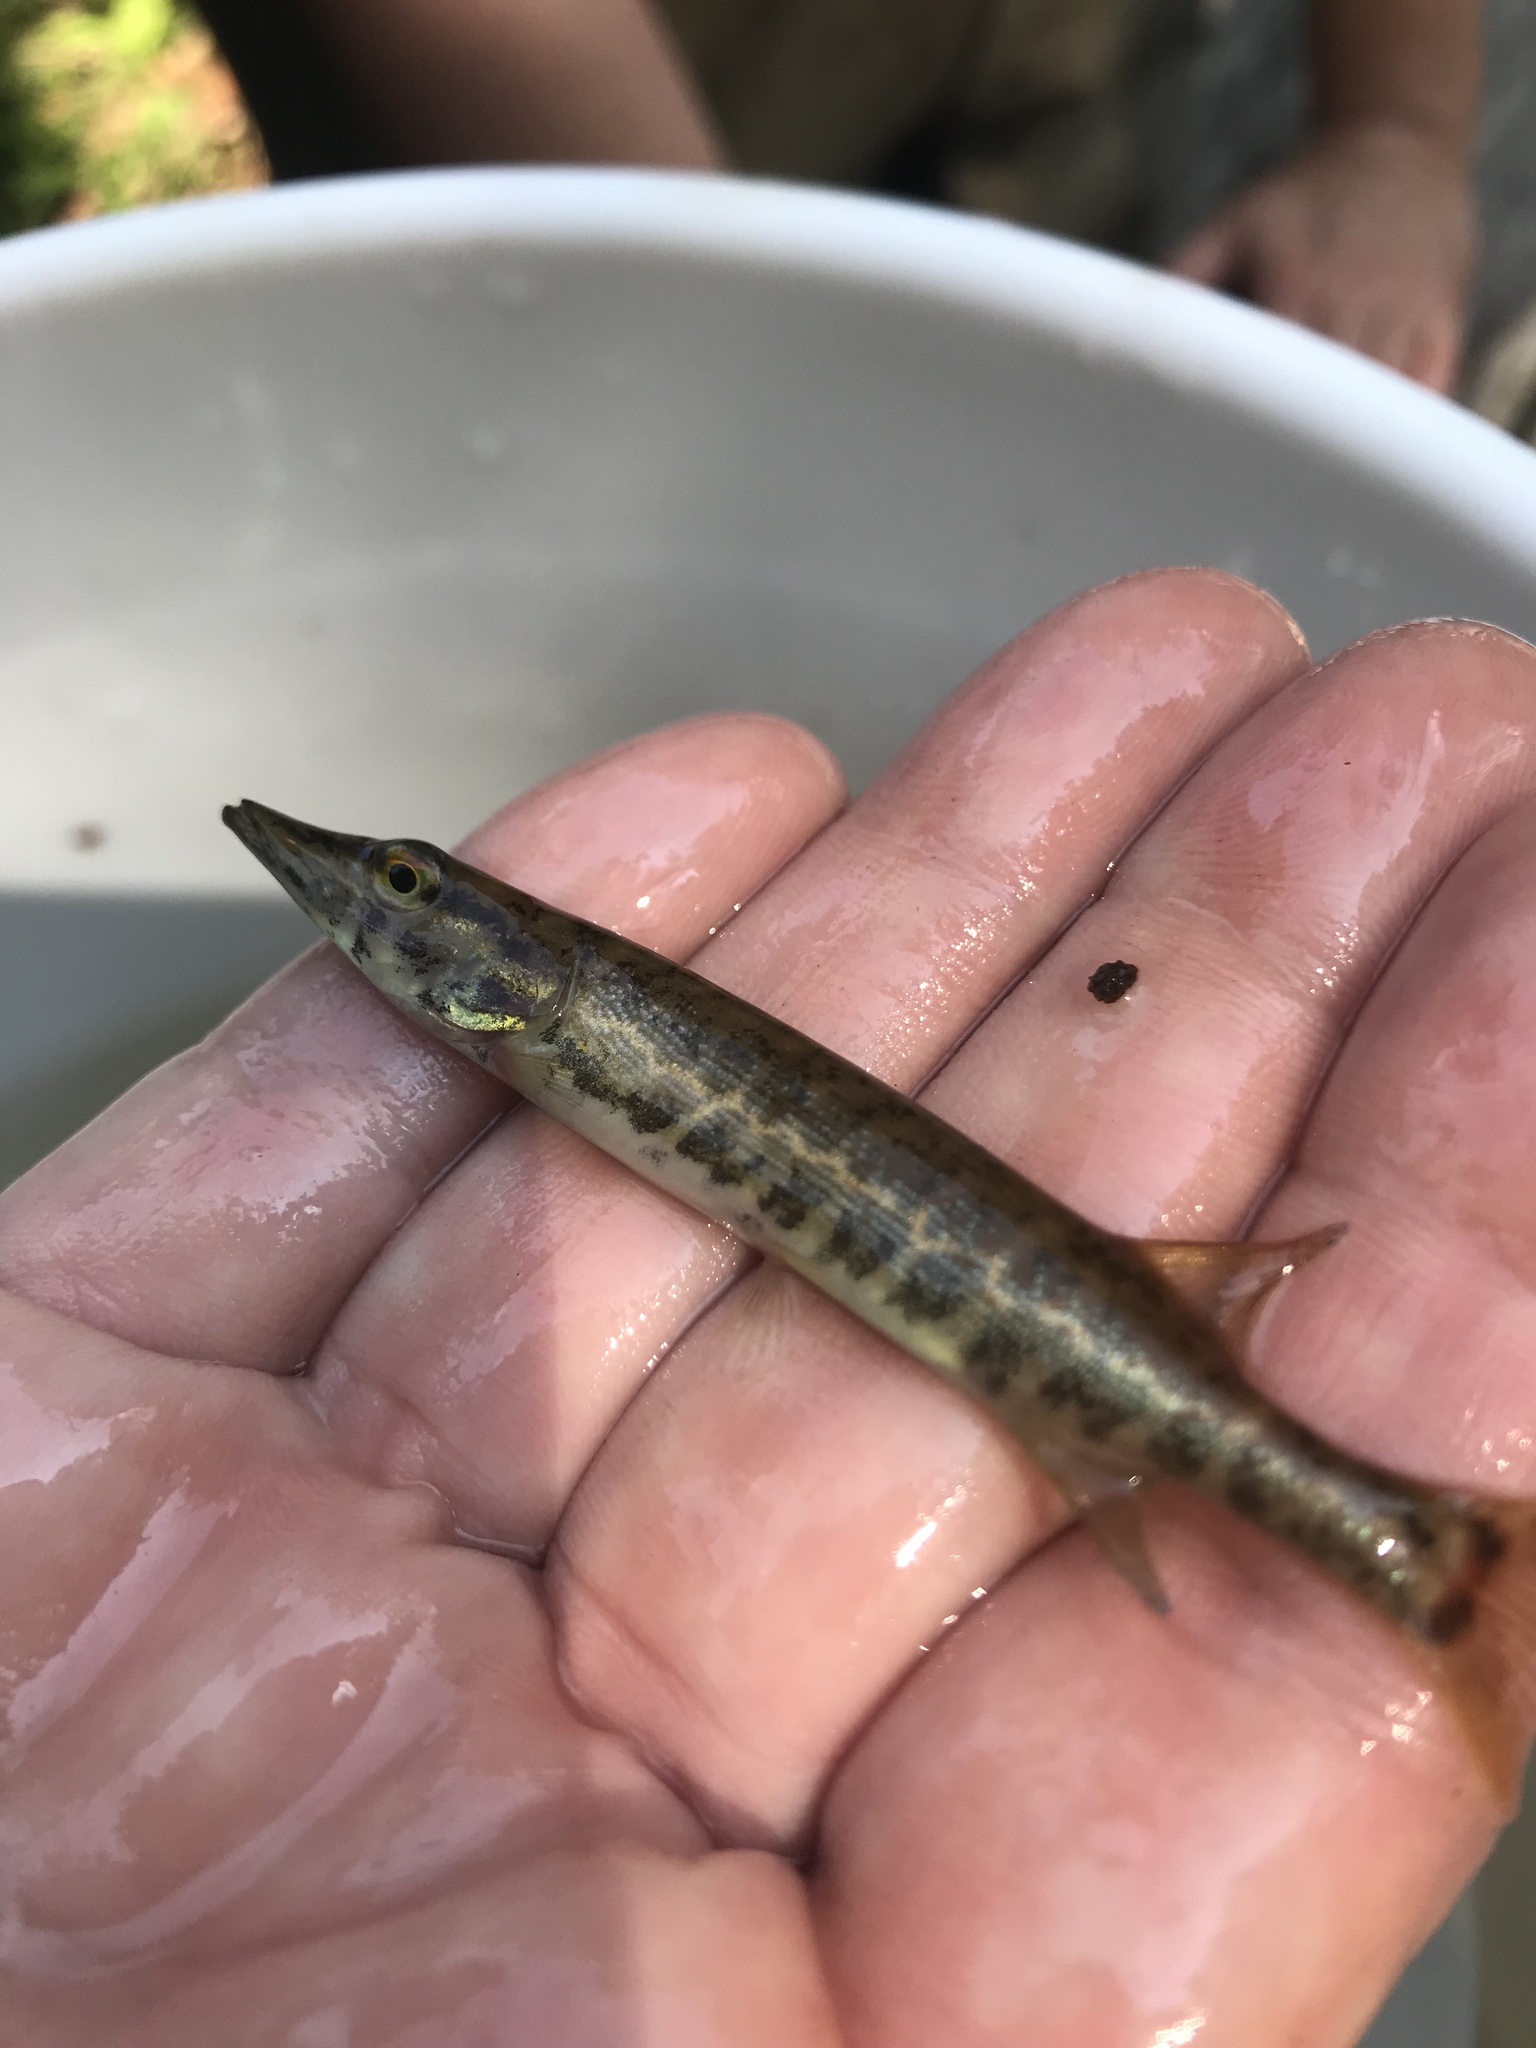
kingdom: Animalia
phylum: Chordata
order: Esociformes
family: Esocidae
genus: Esox
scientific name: Esox americanus
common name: Redfin pickerel
